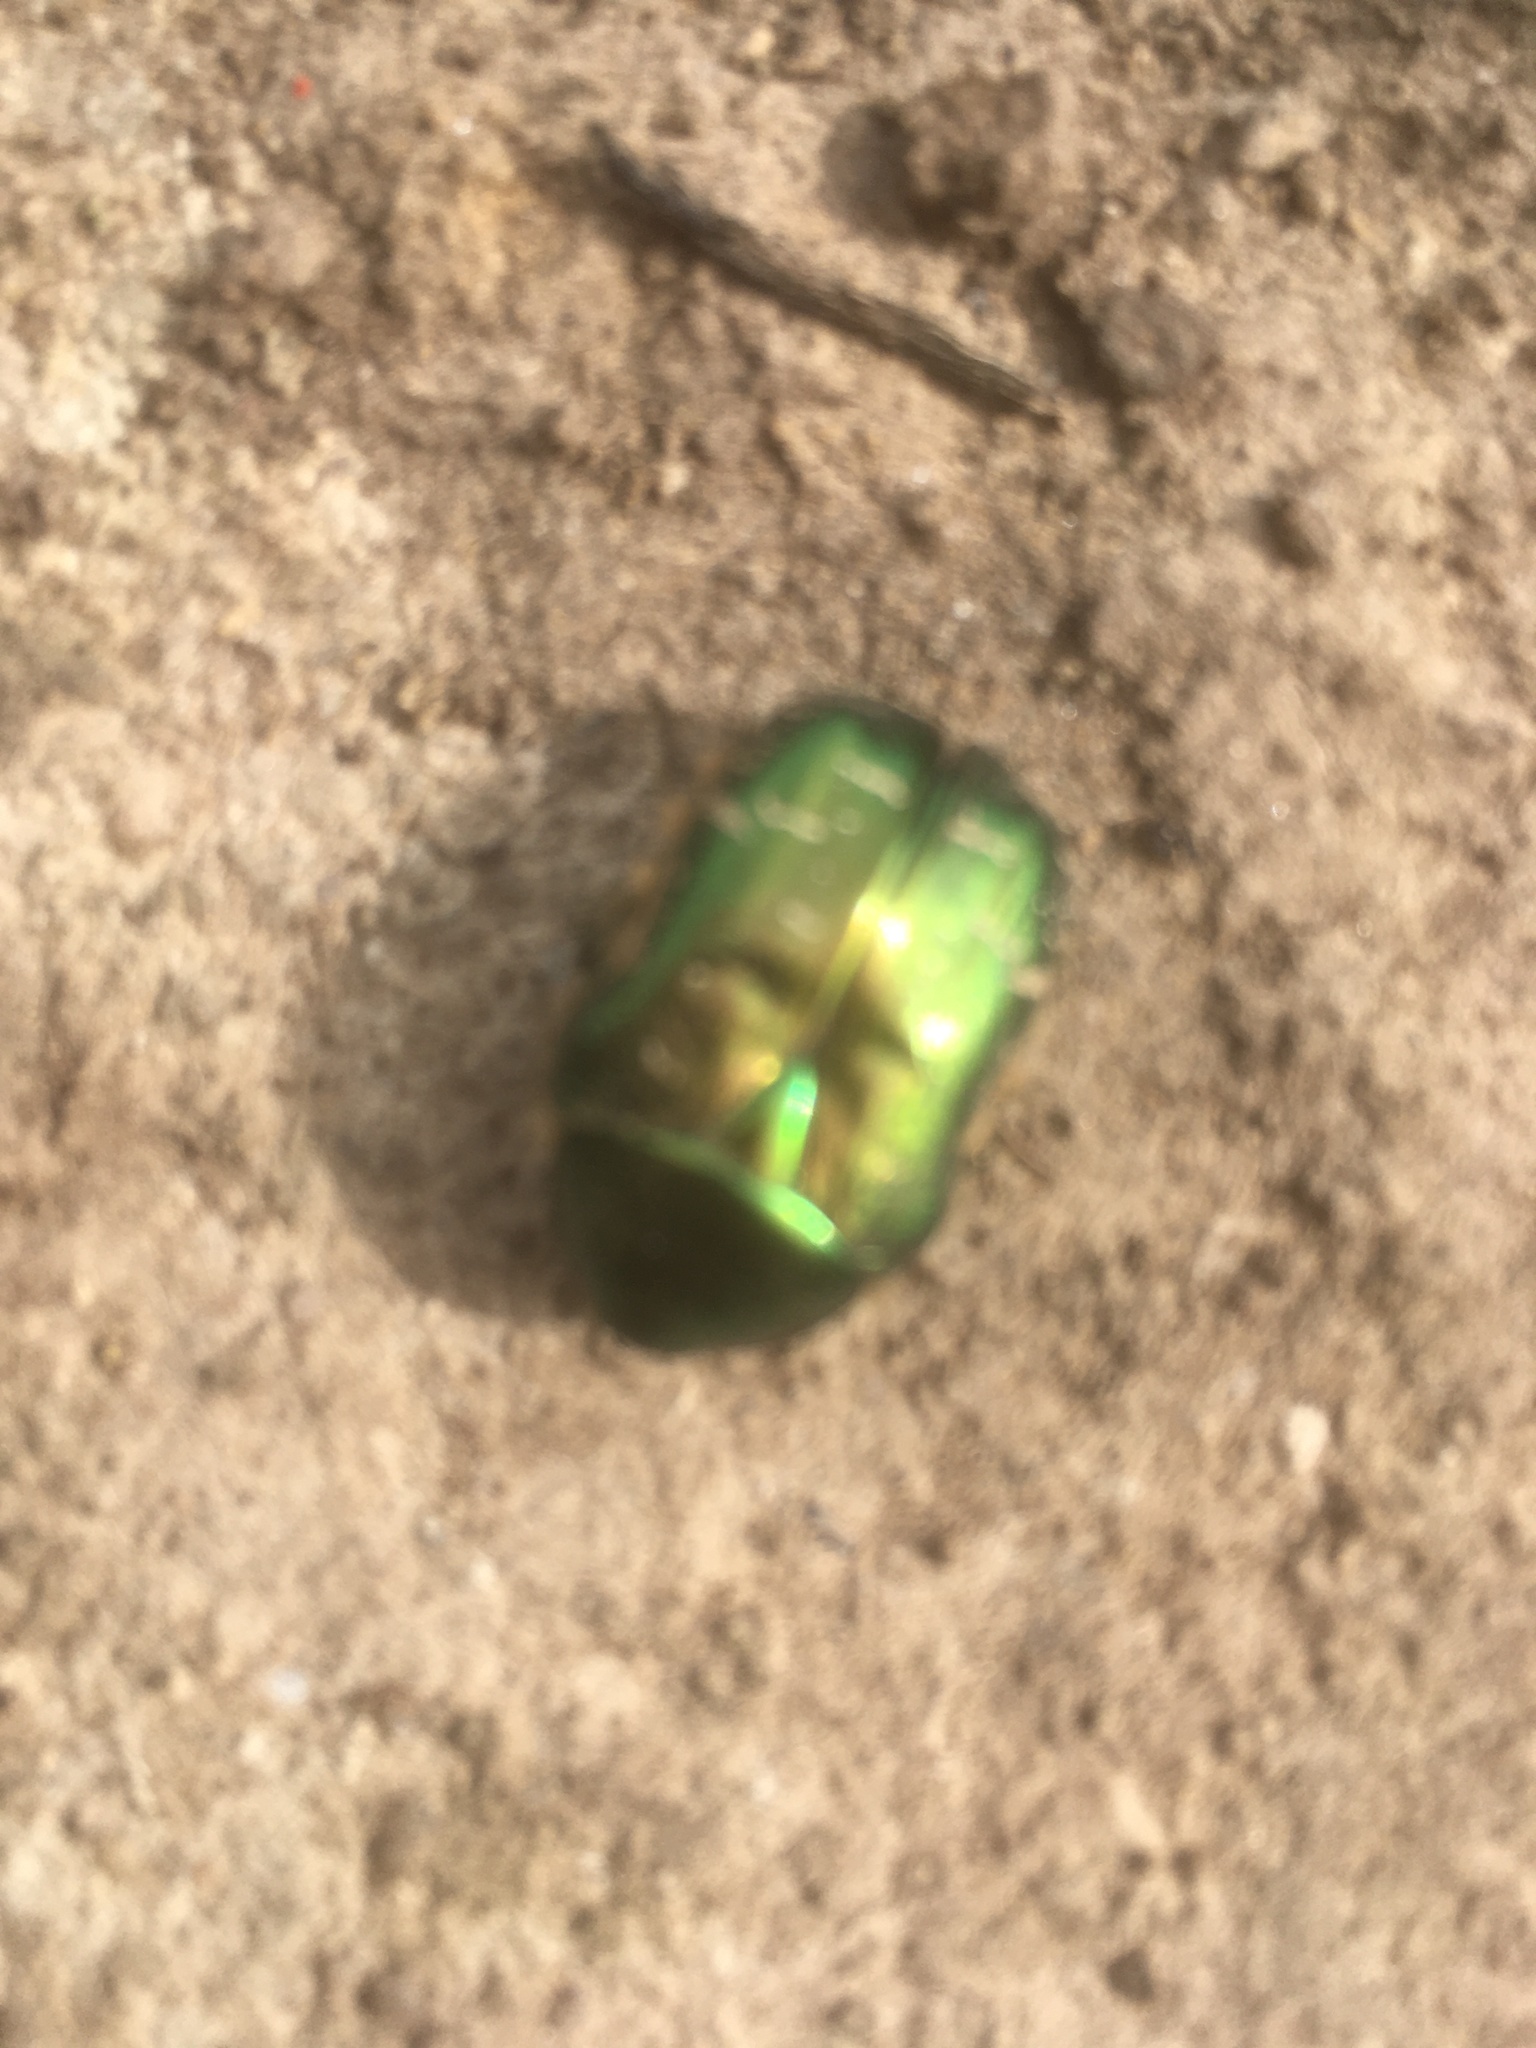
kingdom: Animalia
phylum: Arthropoda
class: Insecta
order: Coleoptera
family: Scarabaeidae
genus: Cetonia
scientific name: Cetonia aurata
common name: Rose chafer
